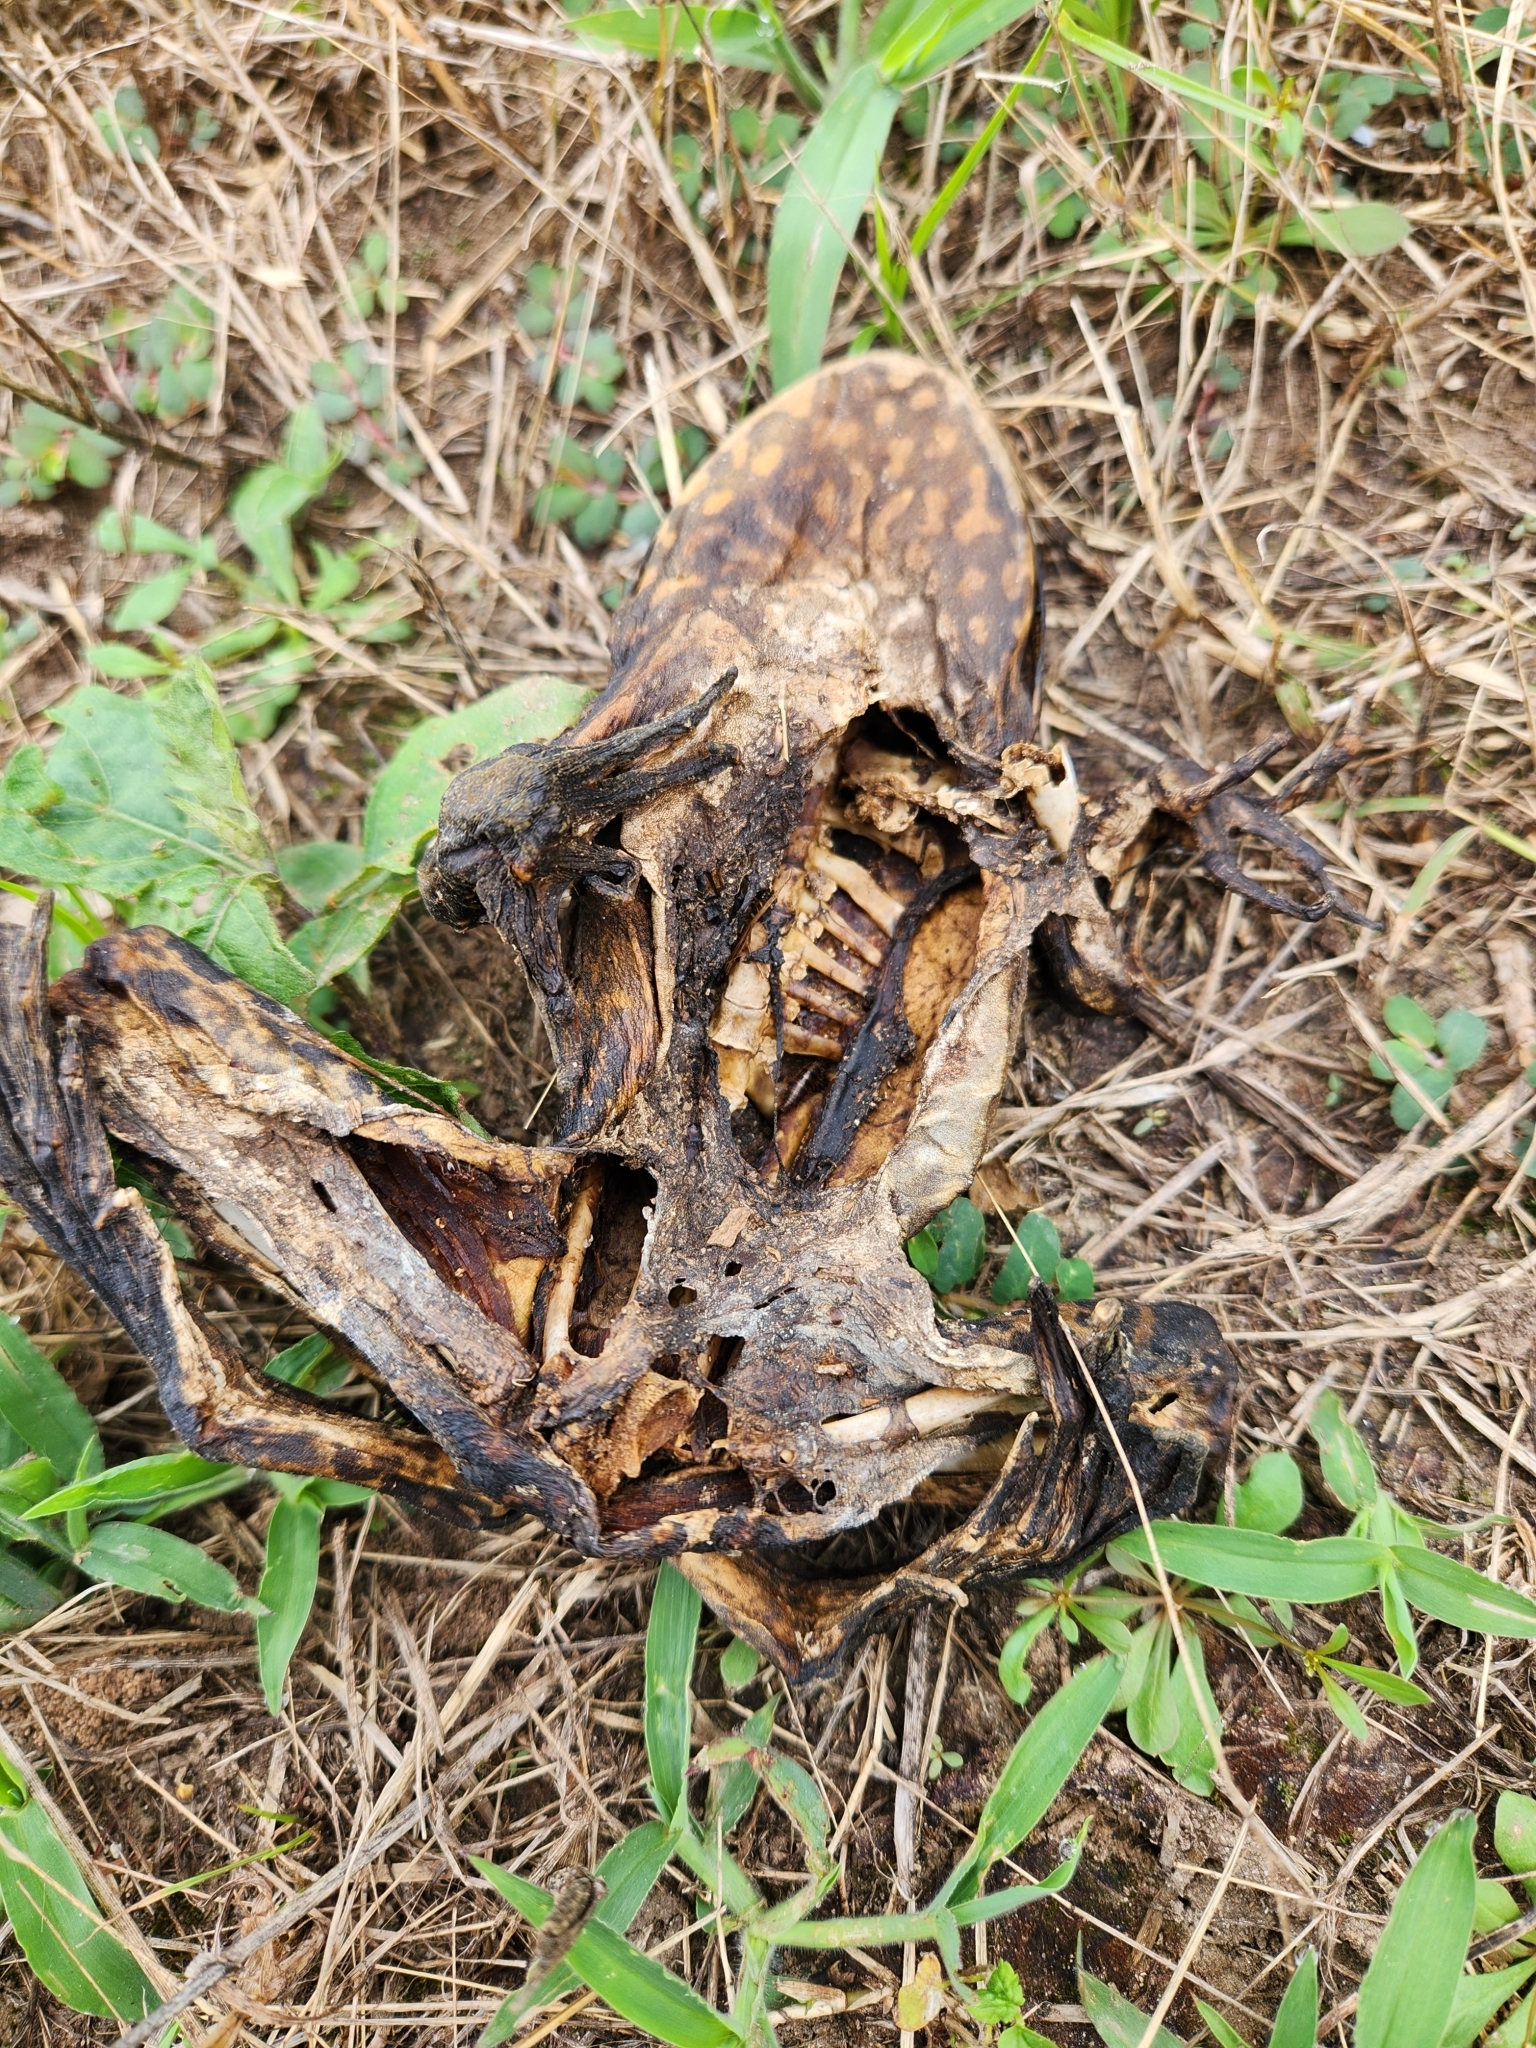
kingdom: Animalia
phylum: Chordata
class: Amphibia
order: Anura
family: Ranidae
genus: Lithobates
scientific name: Lithobates catesbeianus
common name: American bullfrog
